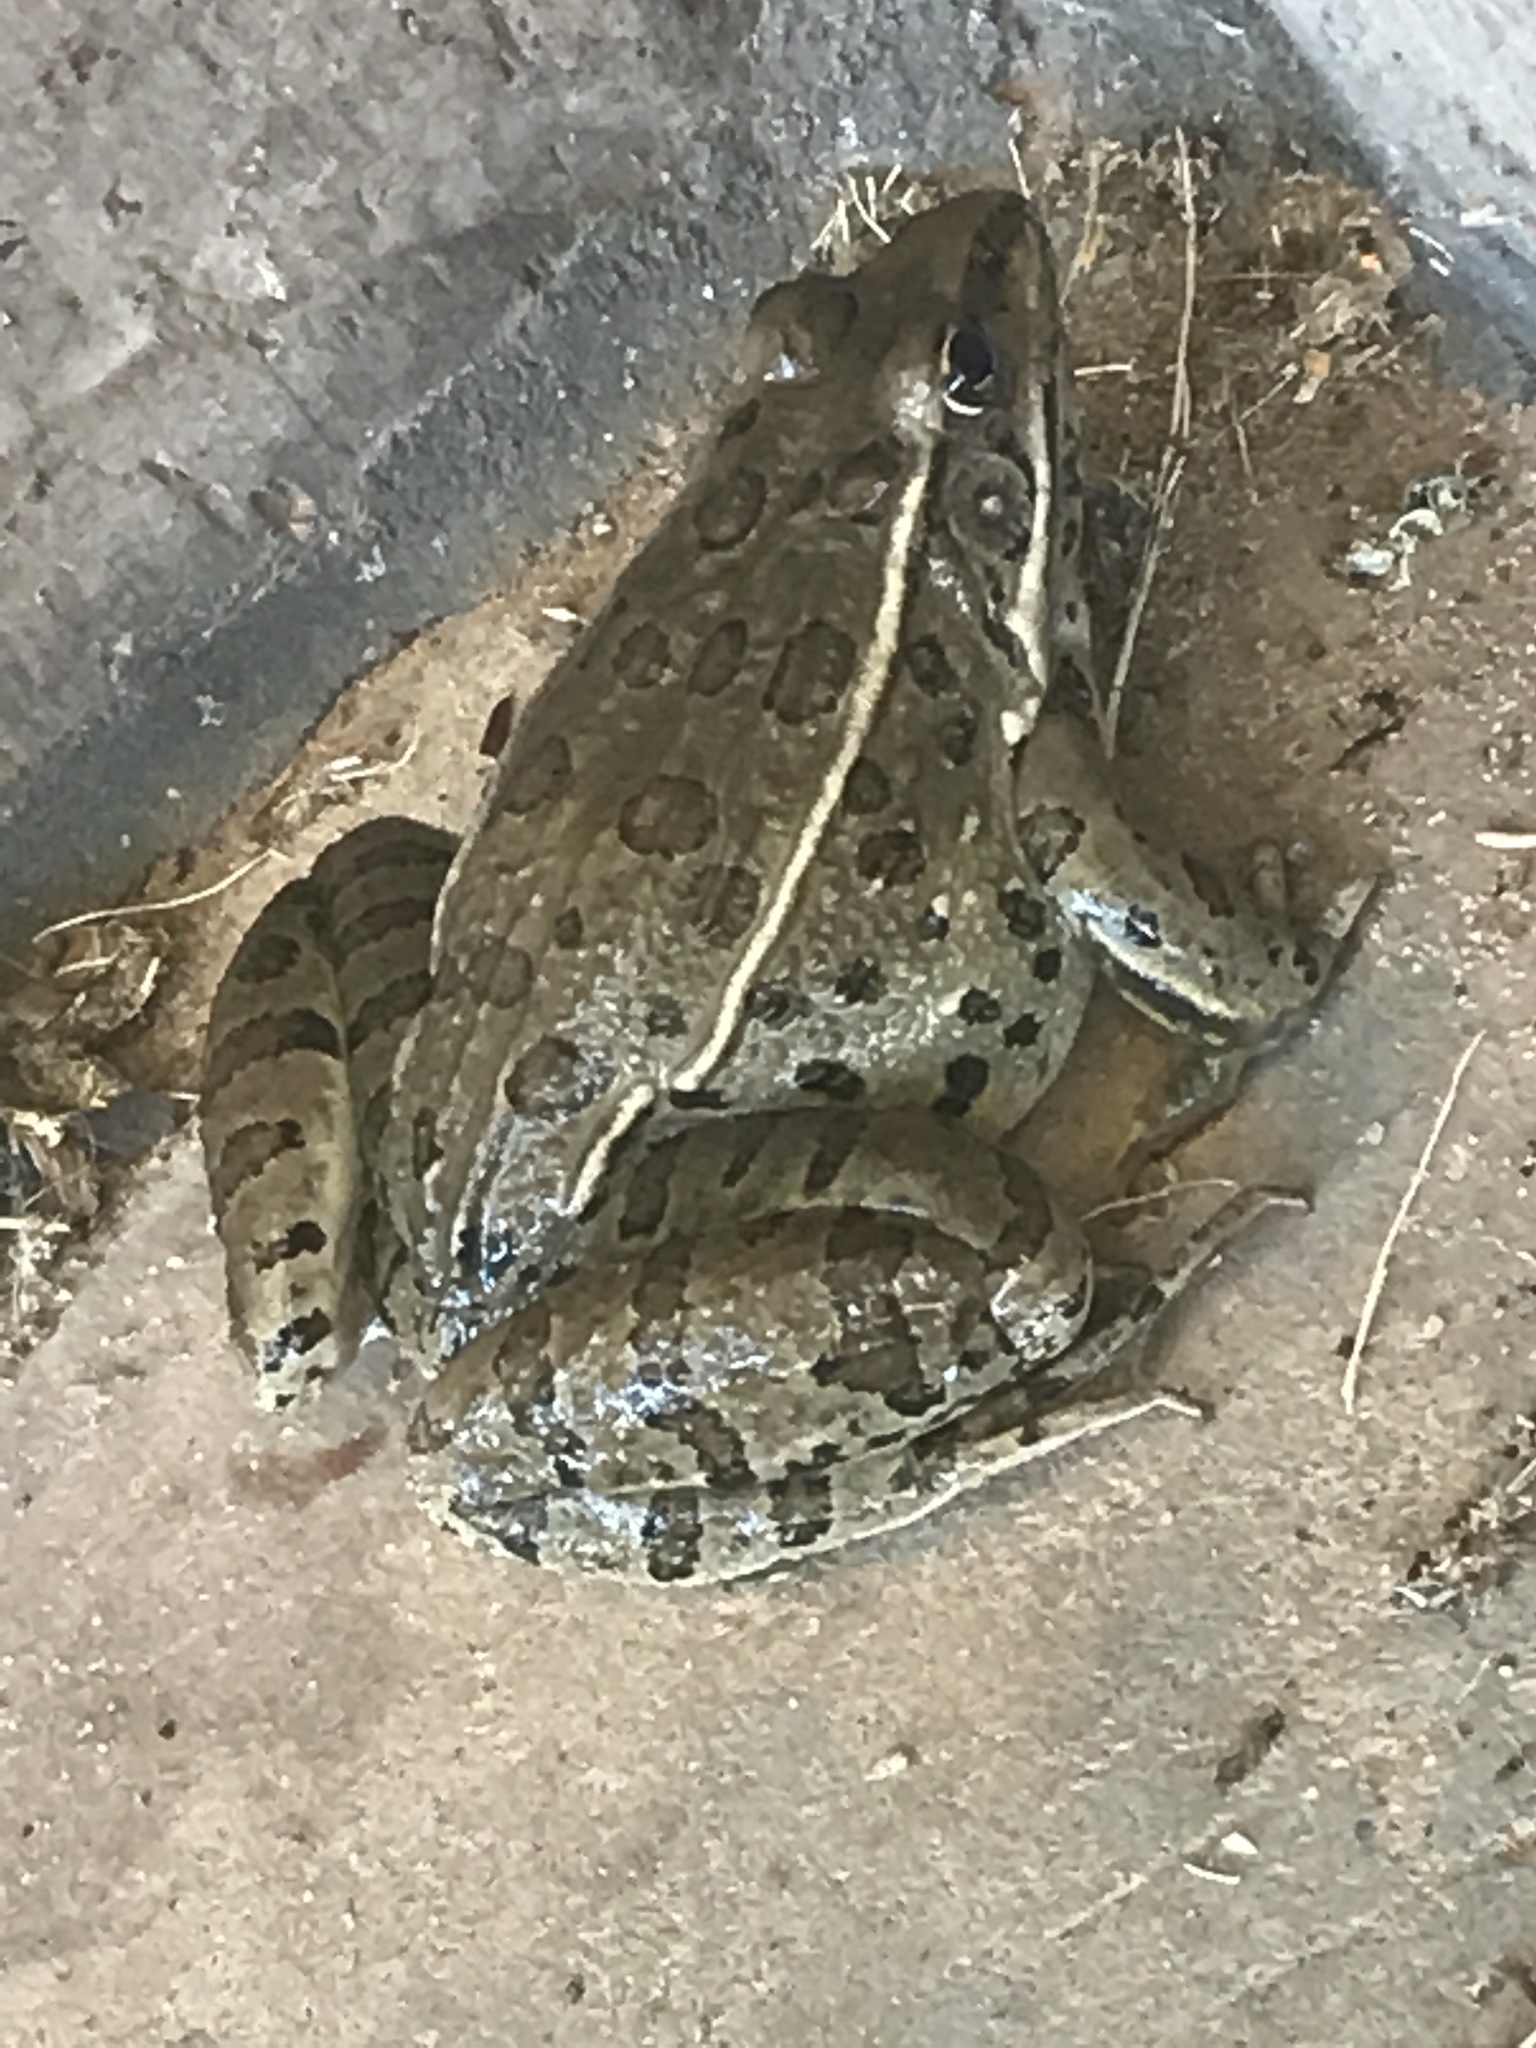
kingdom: Animalia
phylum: Chordata
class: Amphibia
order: Anura
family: Ranidae
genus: Lithobates
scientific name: Lithobates blairi
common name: Plains leopard frog
